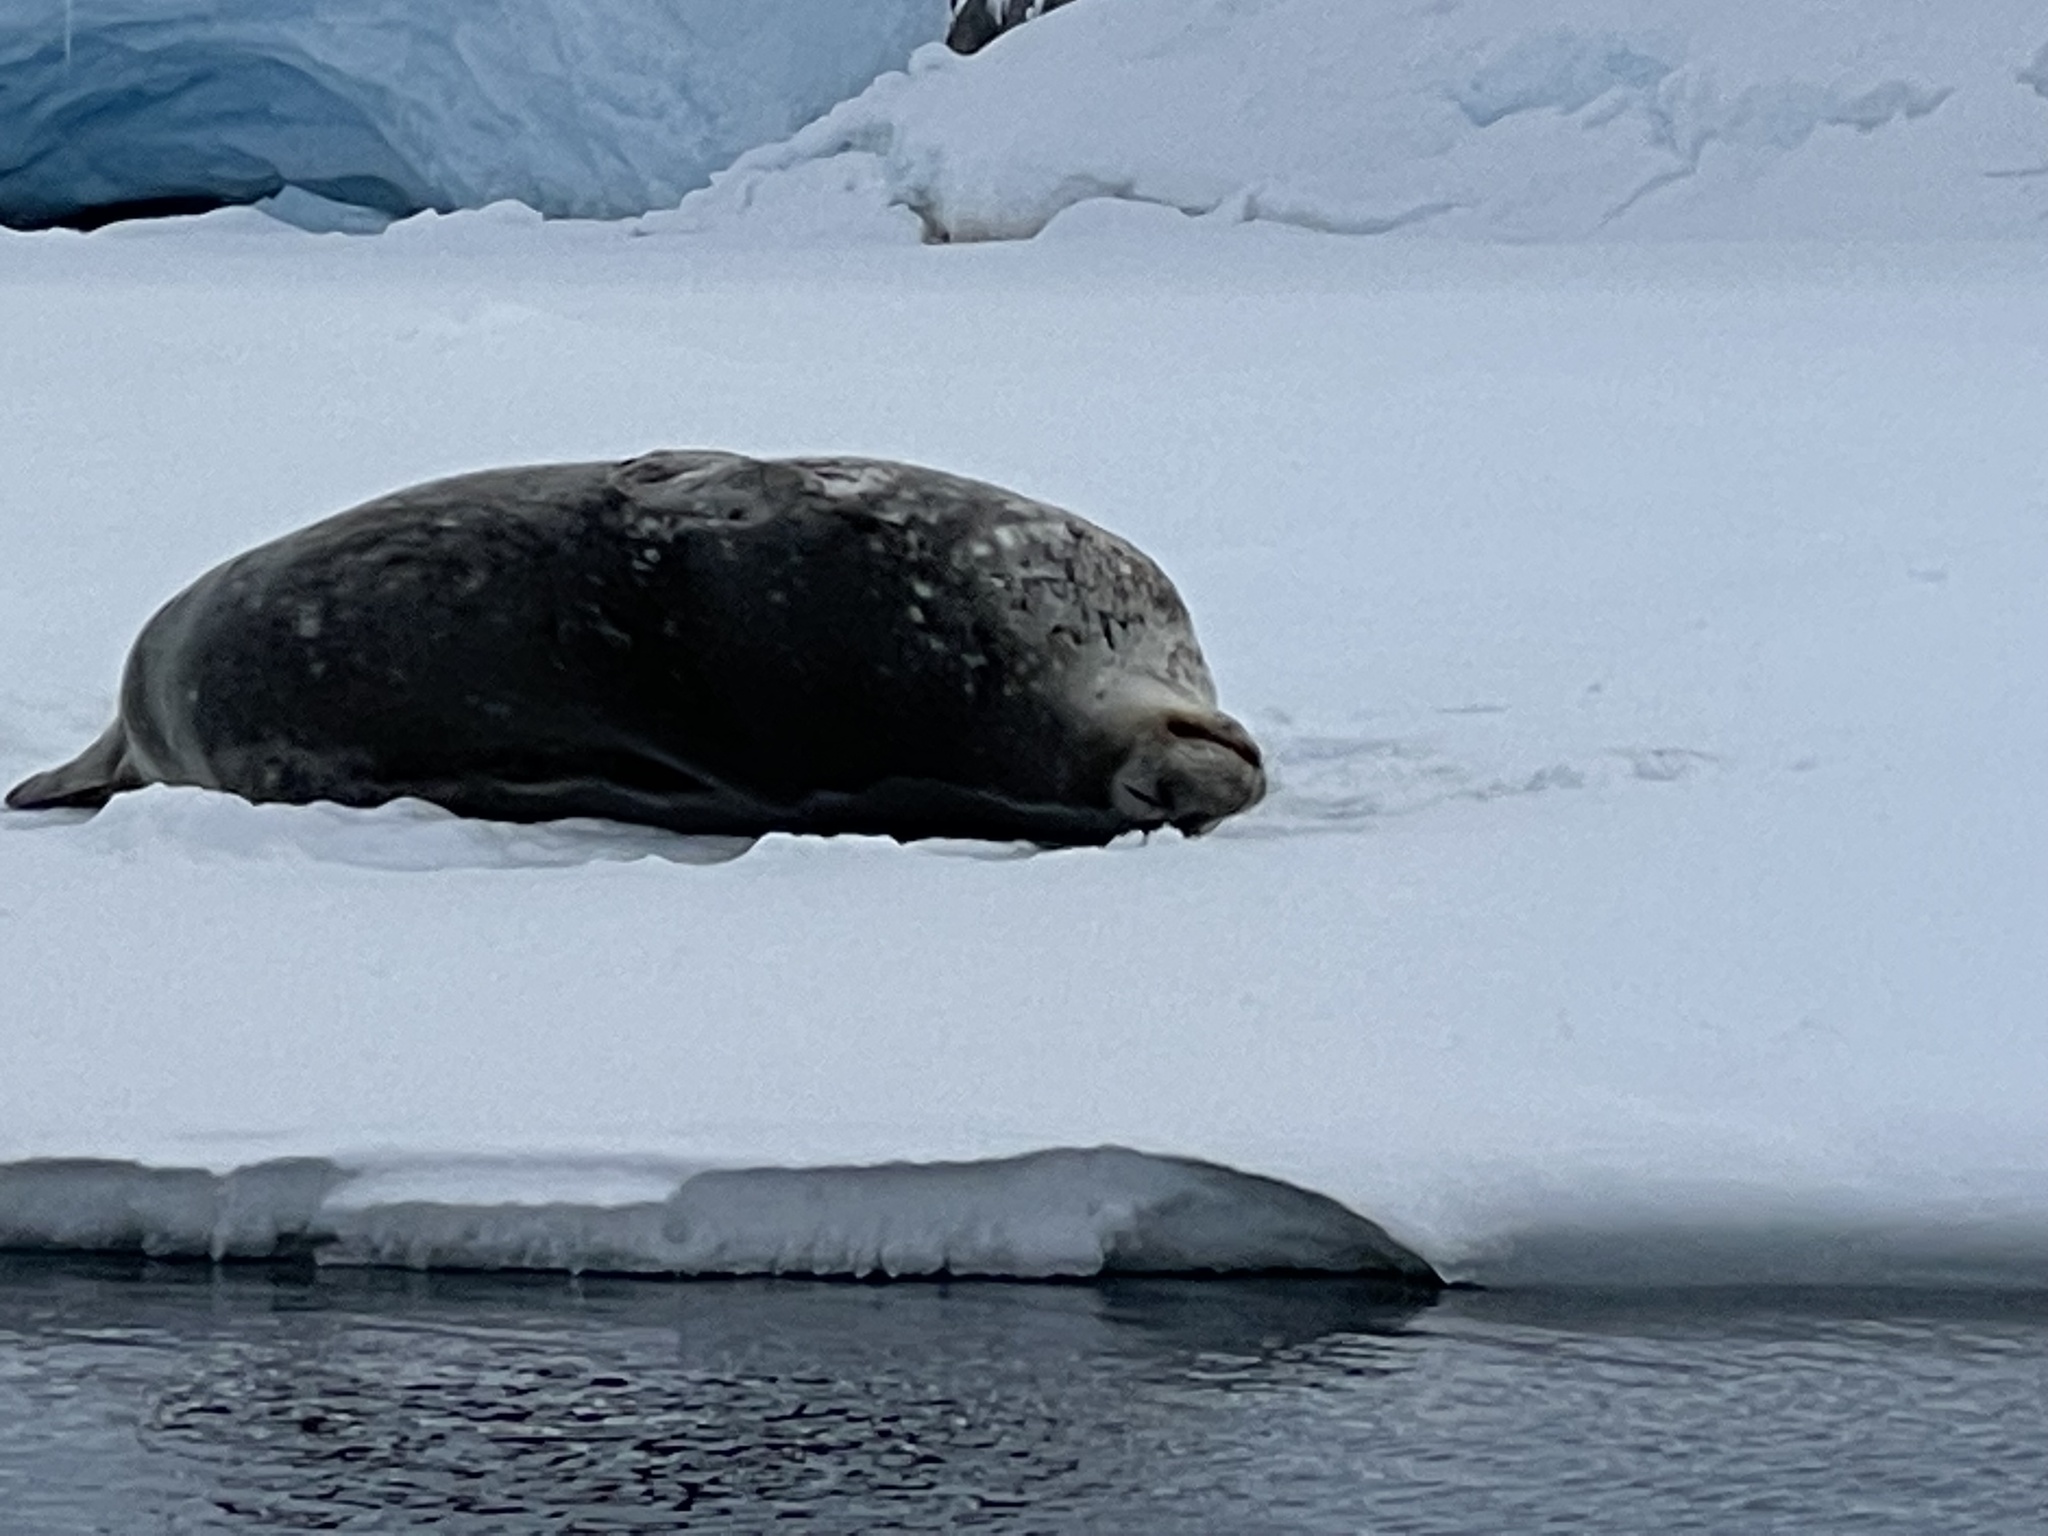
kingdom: Animalia
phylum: Chordata
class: Mammalia
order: Carnivora
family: Phocidae
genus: Leptonychotes
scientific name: Leptonychotes weddellii
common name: Weddell seal
